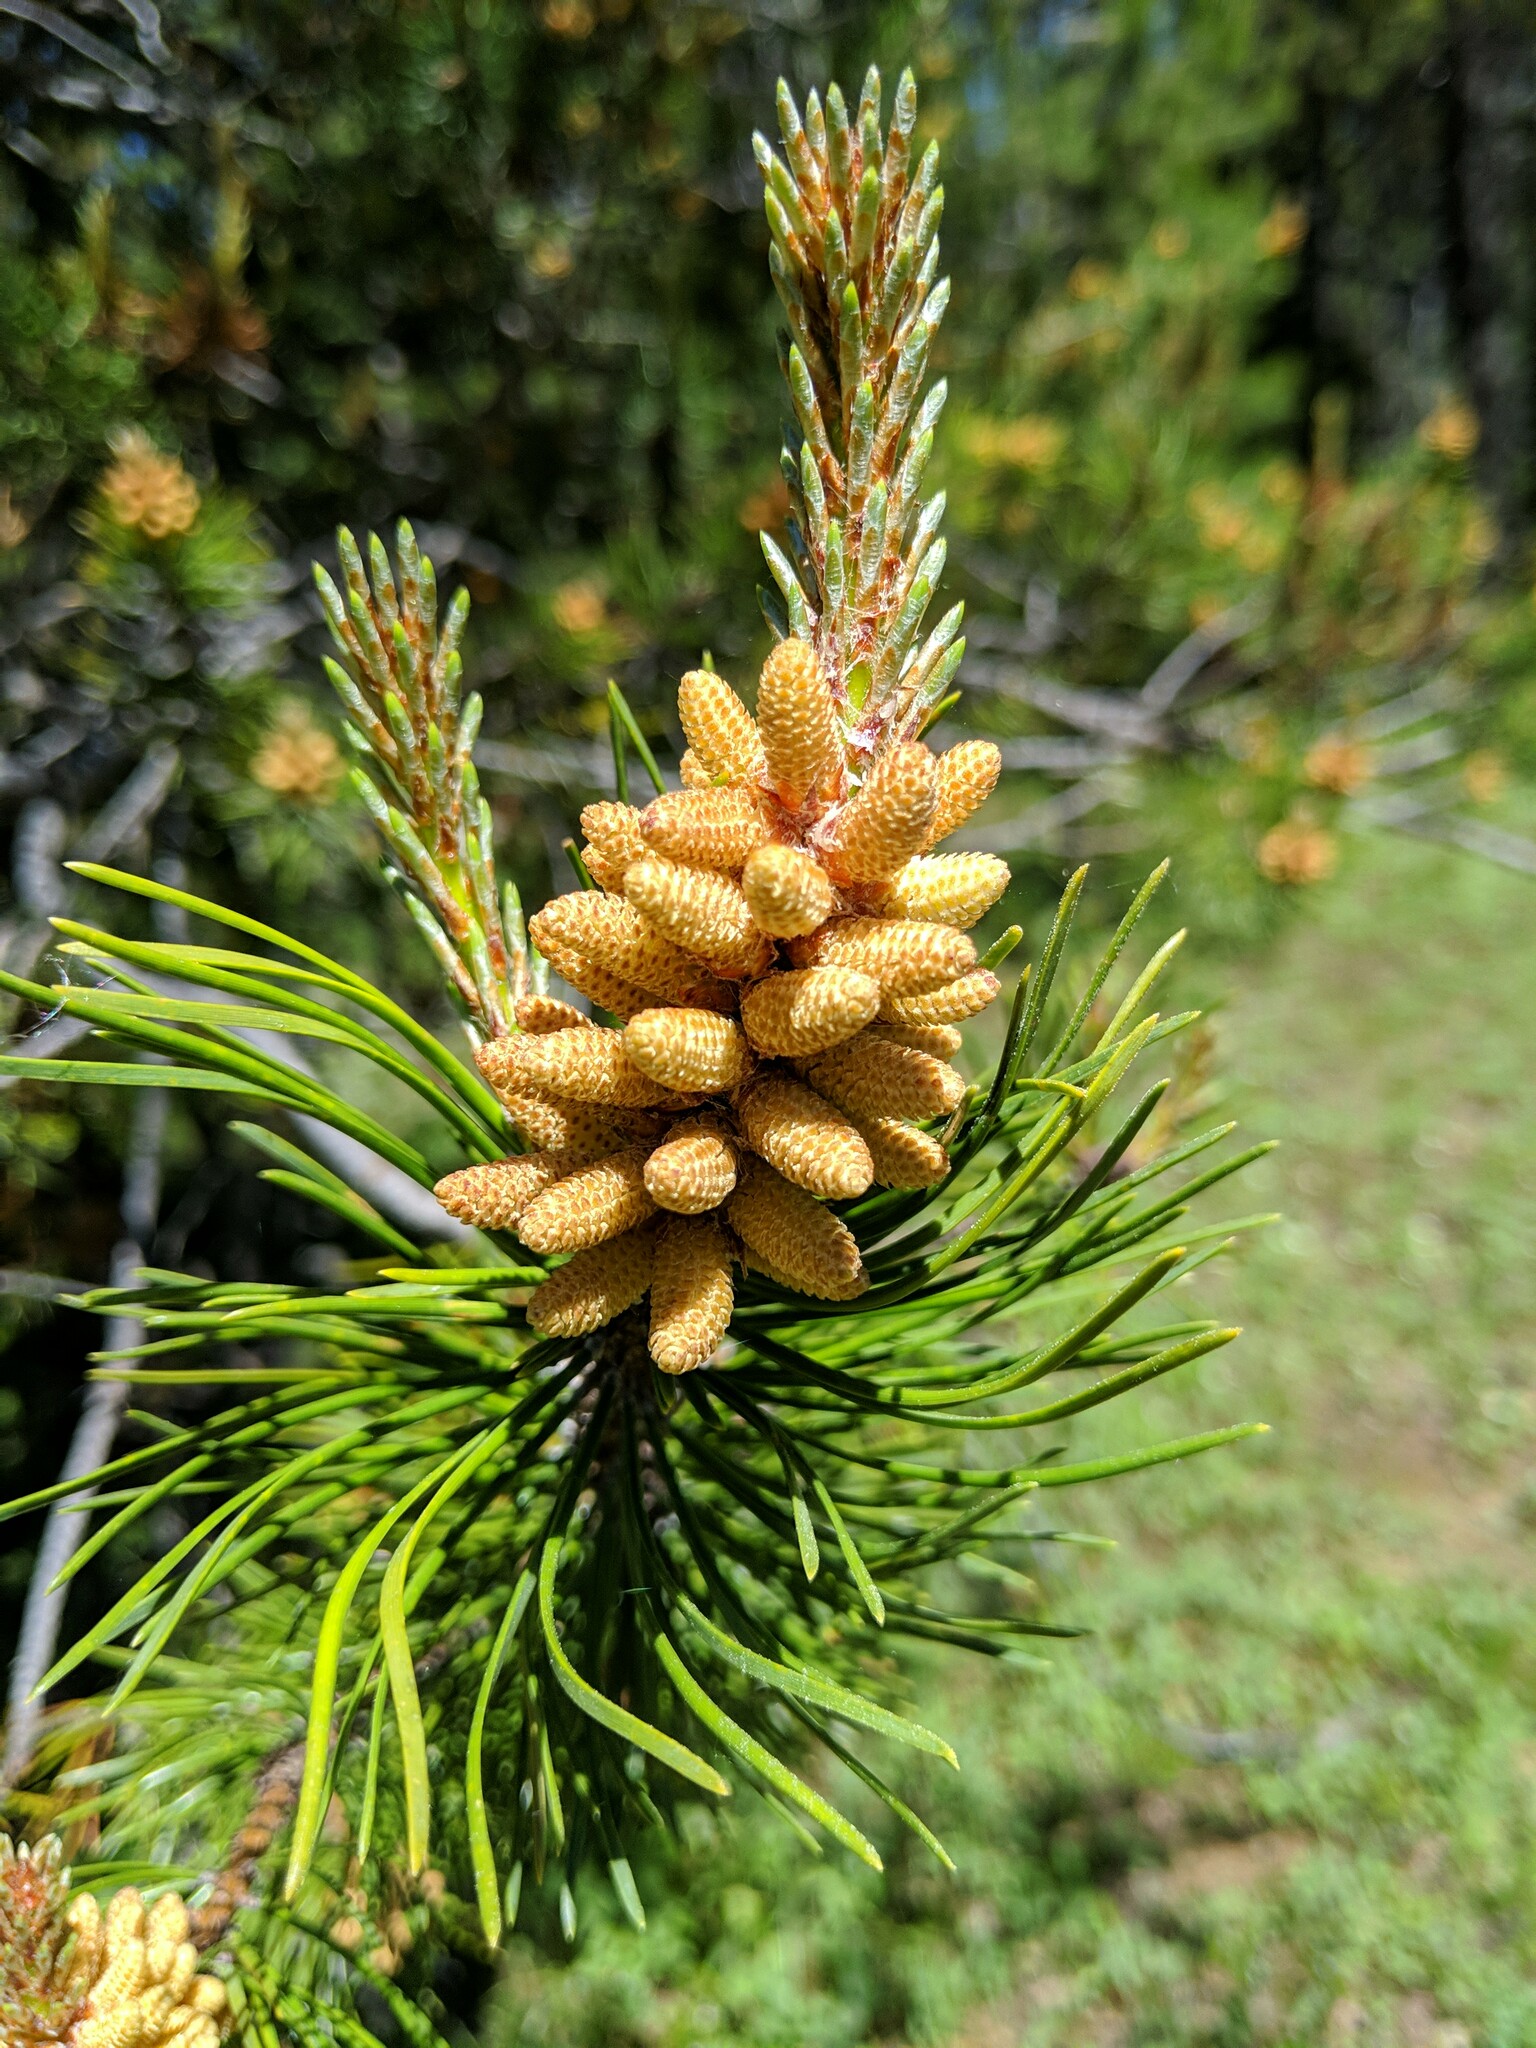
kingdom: Plantae
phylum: Tracheophyta
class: Pinopsida
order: Pinales
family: Pinaceae
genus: Pinus
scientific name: Pinus contorta
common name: Lodgepole pine
